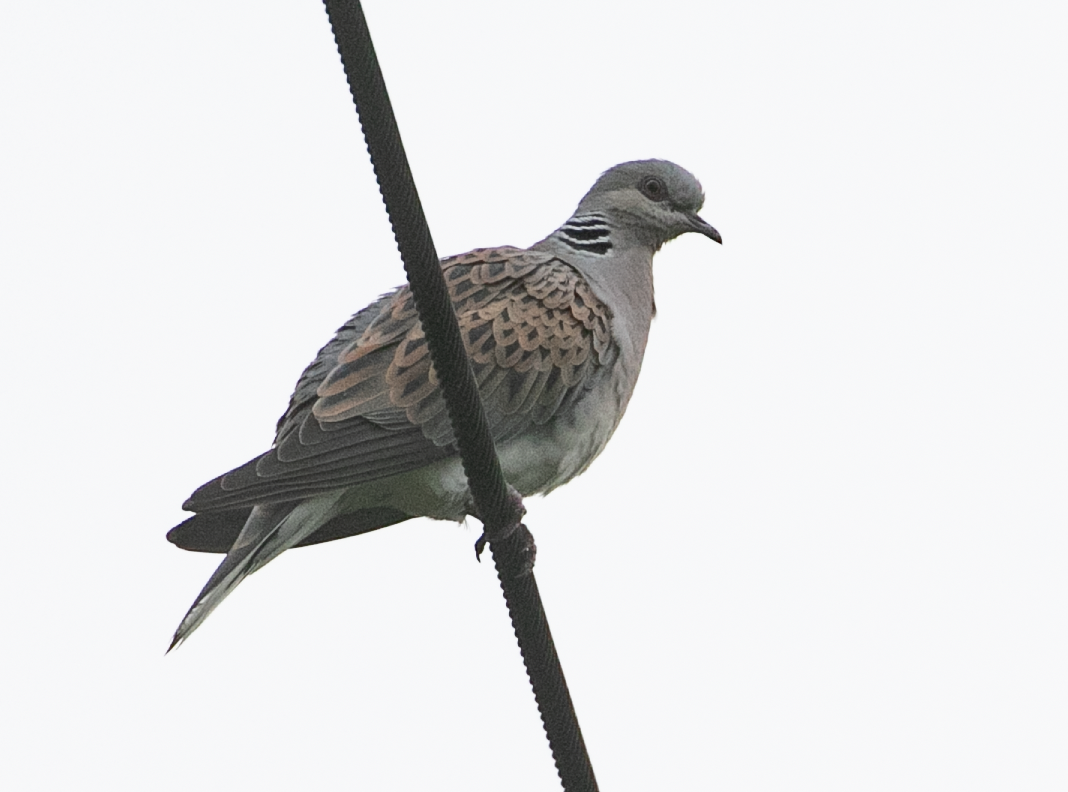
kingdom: Animalia
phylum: Chordata
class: Aves
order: Columbiformes
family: Columbidae
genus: Streptopelia
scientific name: Streptopelia turtur
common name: European turtle dove
